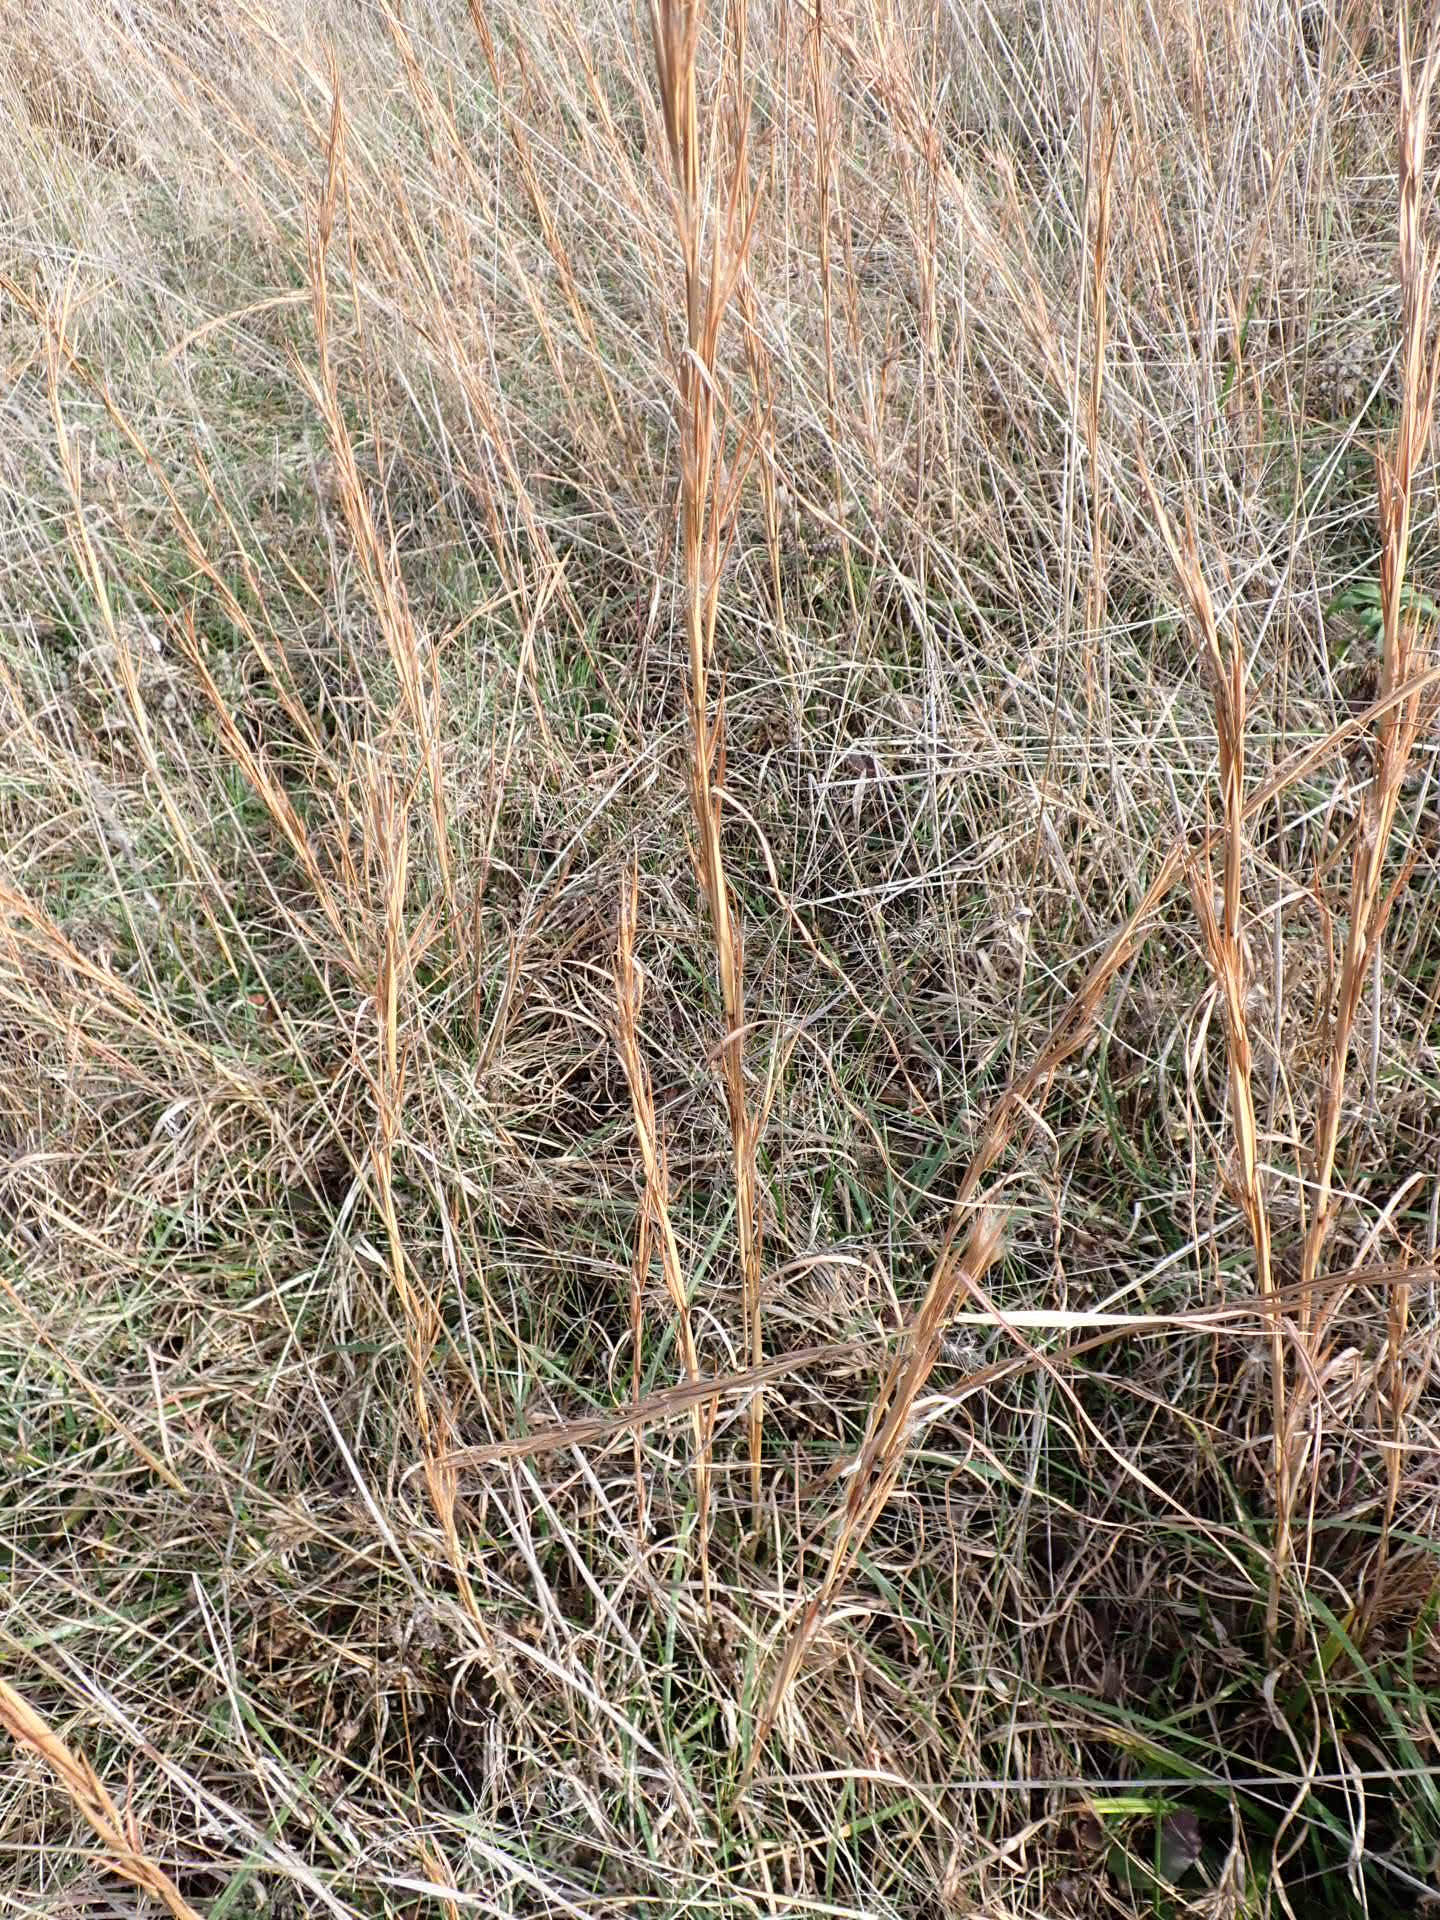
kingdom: Plantae
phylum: Tracheophyta
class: Liliopsida
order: Poales
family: Poaceae
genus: Andropogon
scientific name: Andropogon virginicus
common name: Broomsedge bluestem
